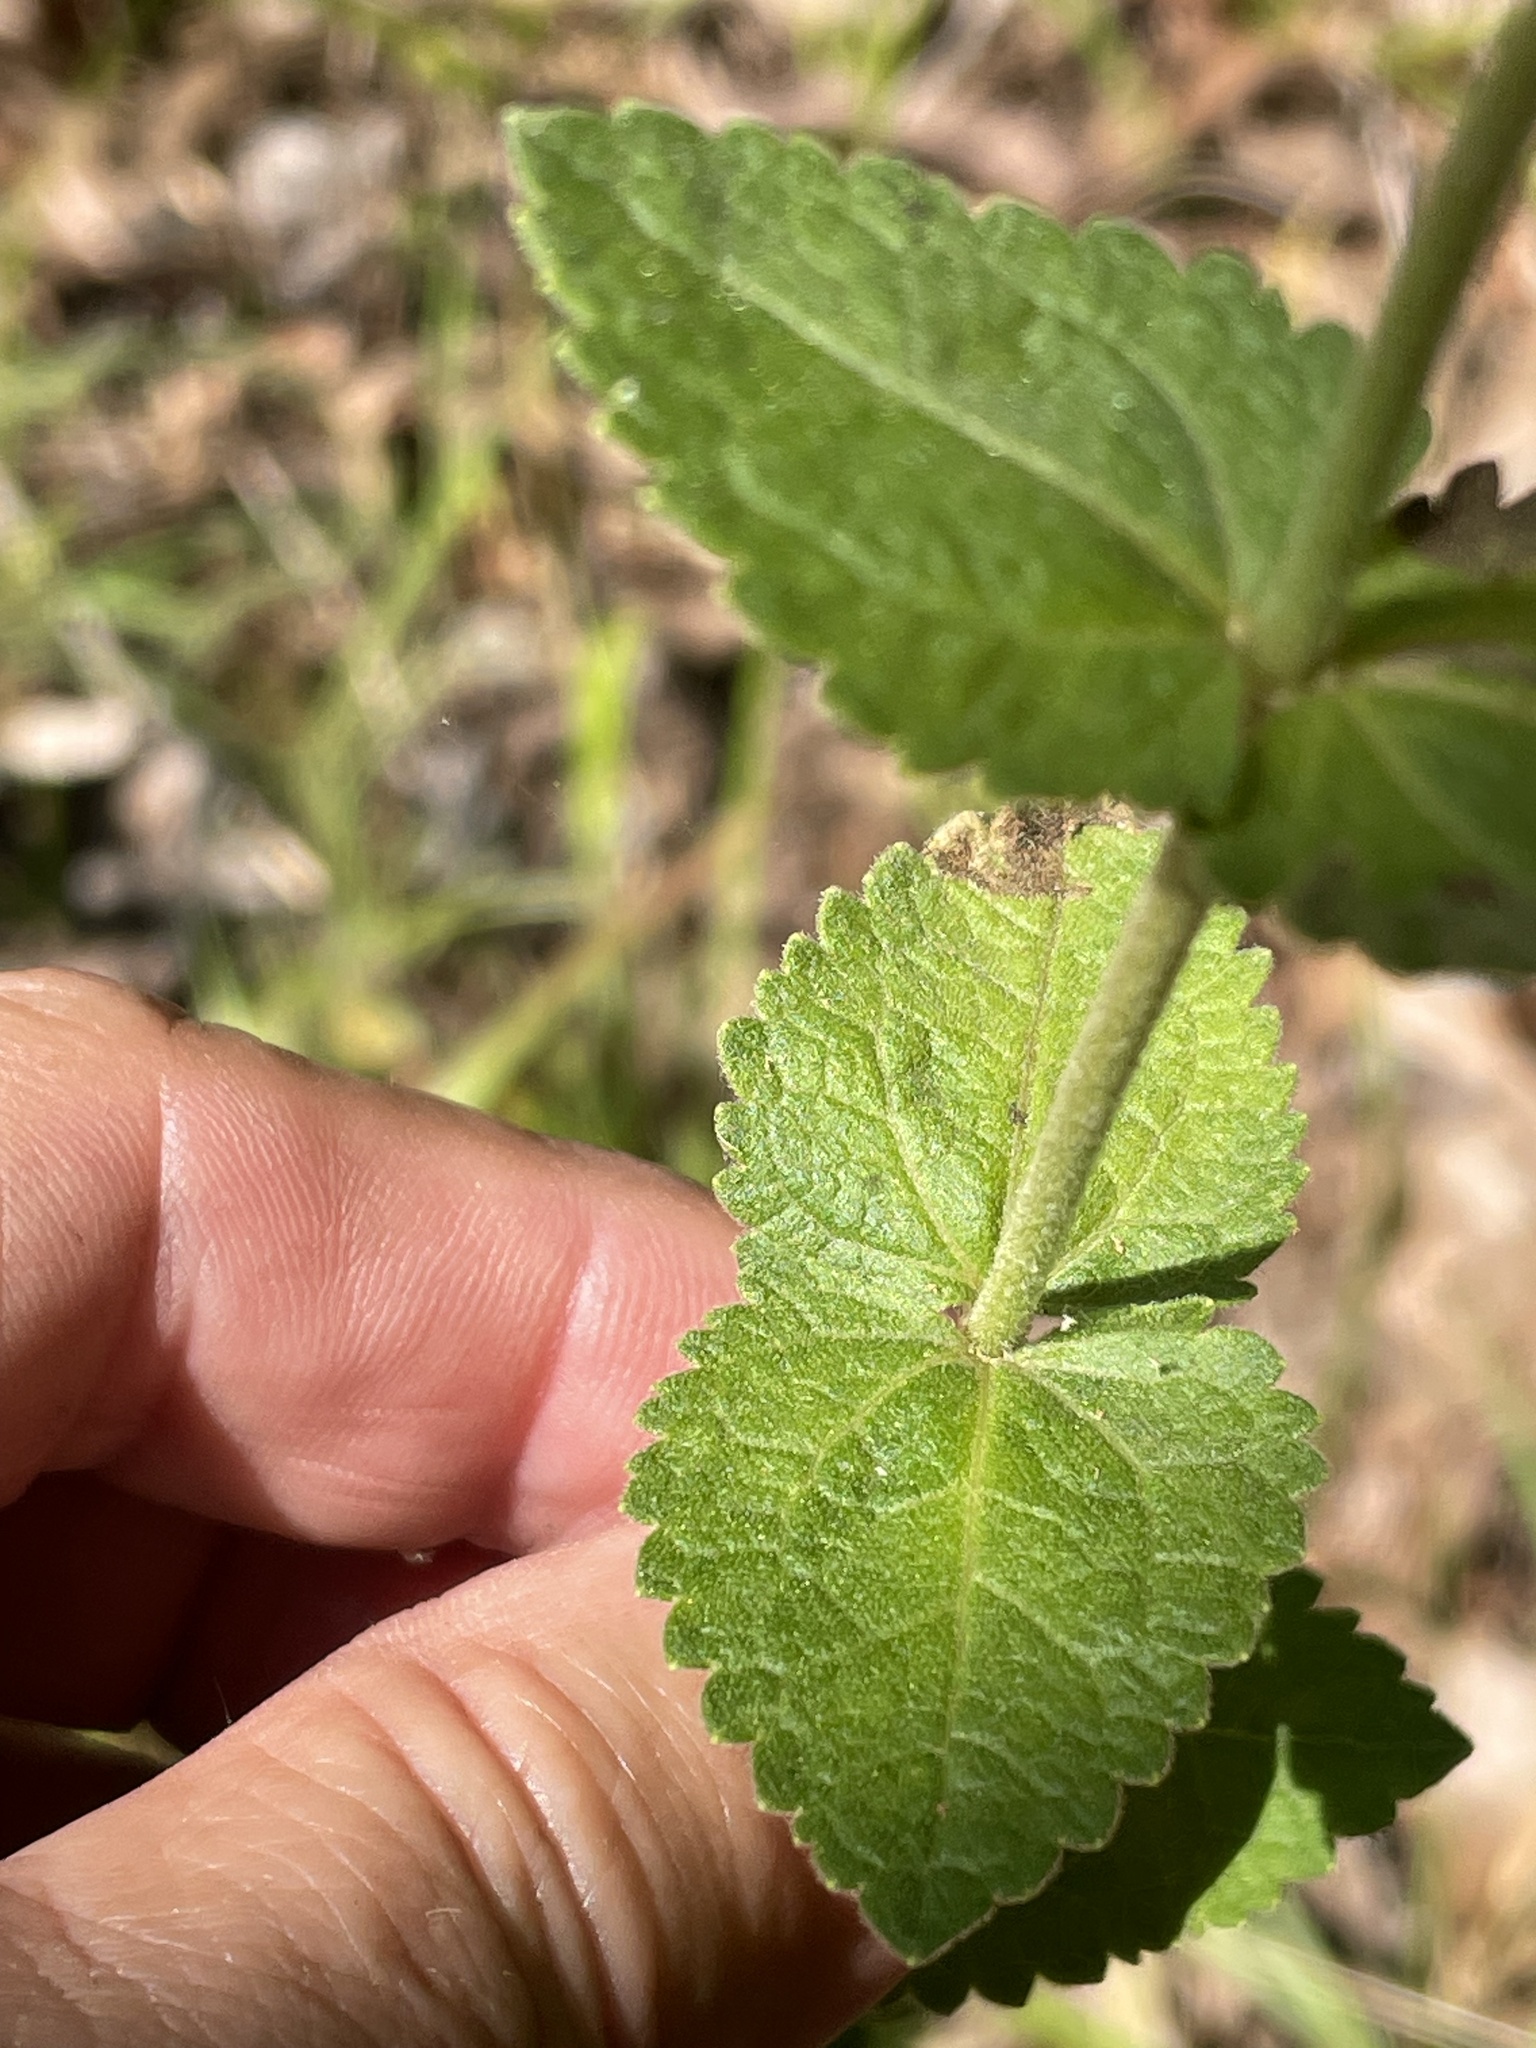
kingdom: Plantae
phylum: Tracheophyta
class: Magnoliopsida
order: Asterales
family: Asteraceae
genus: Eupatorium
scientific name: Eupatorium rotundifolium
